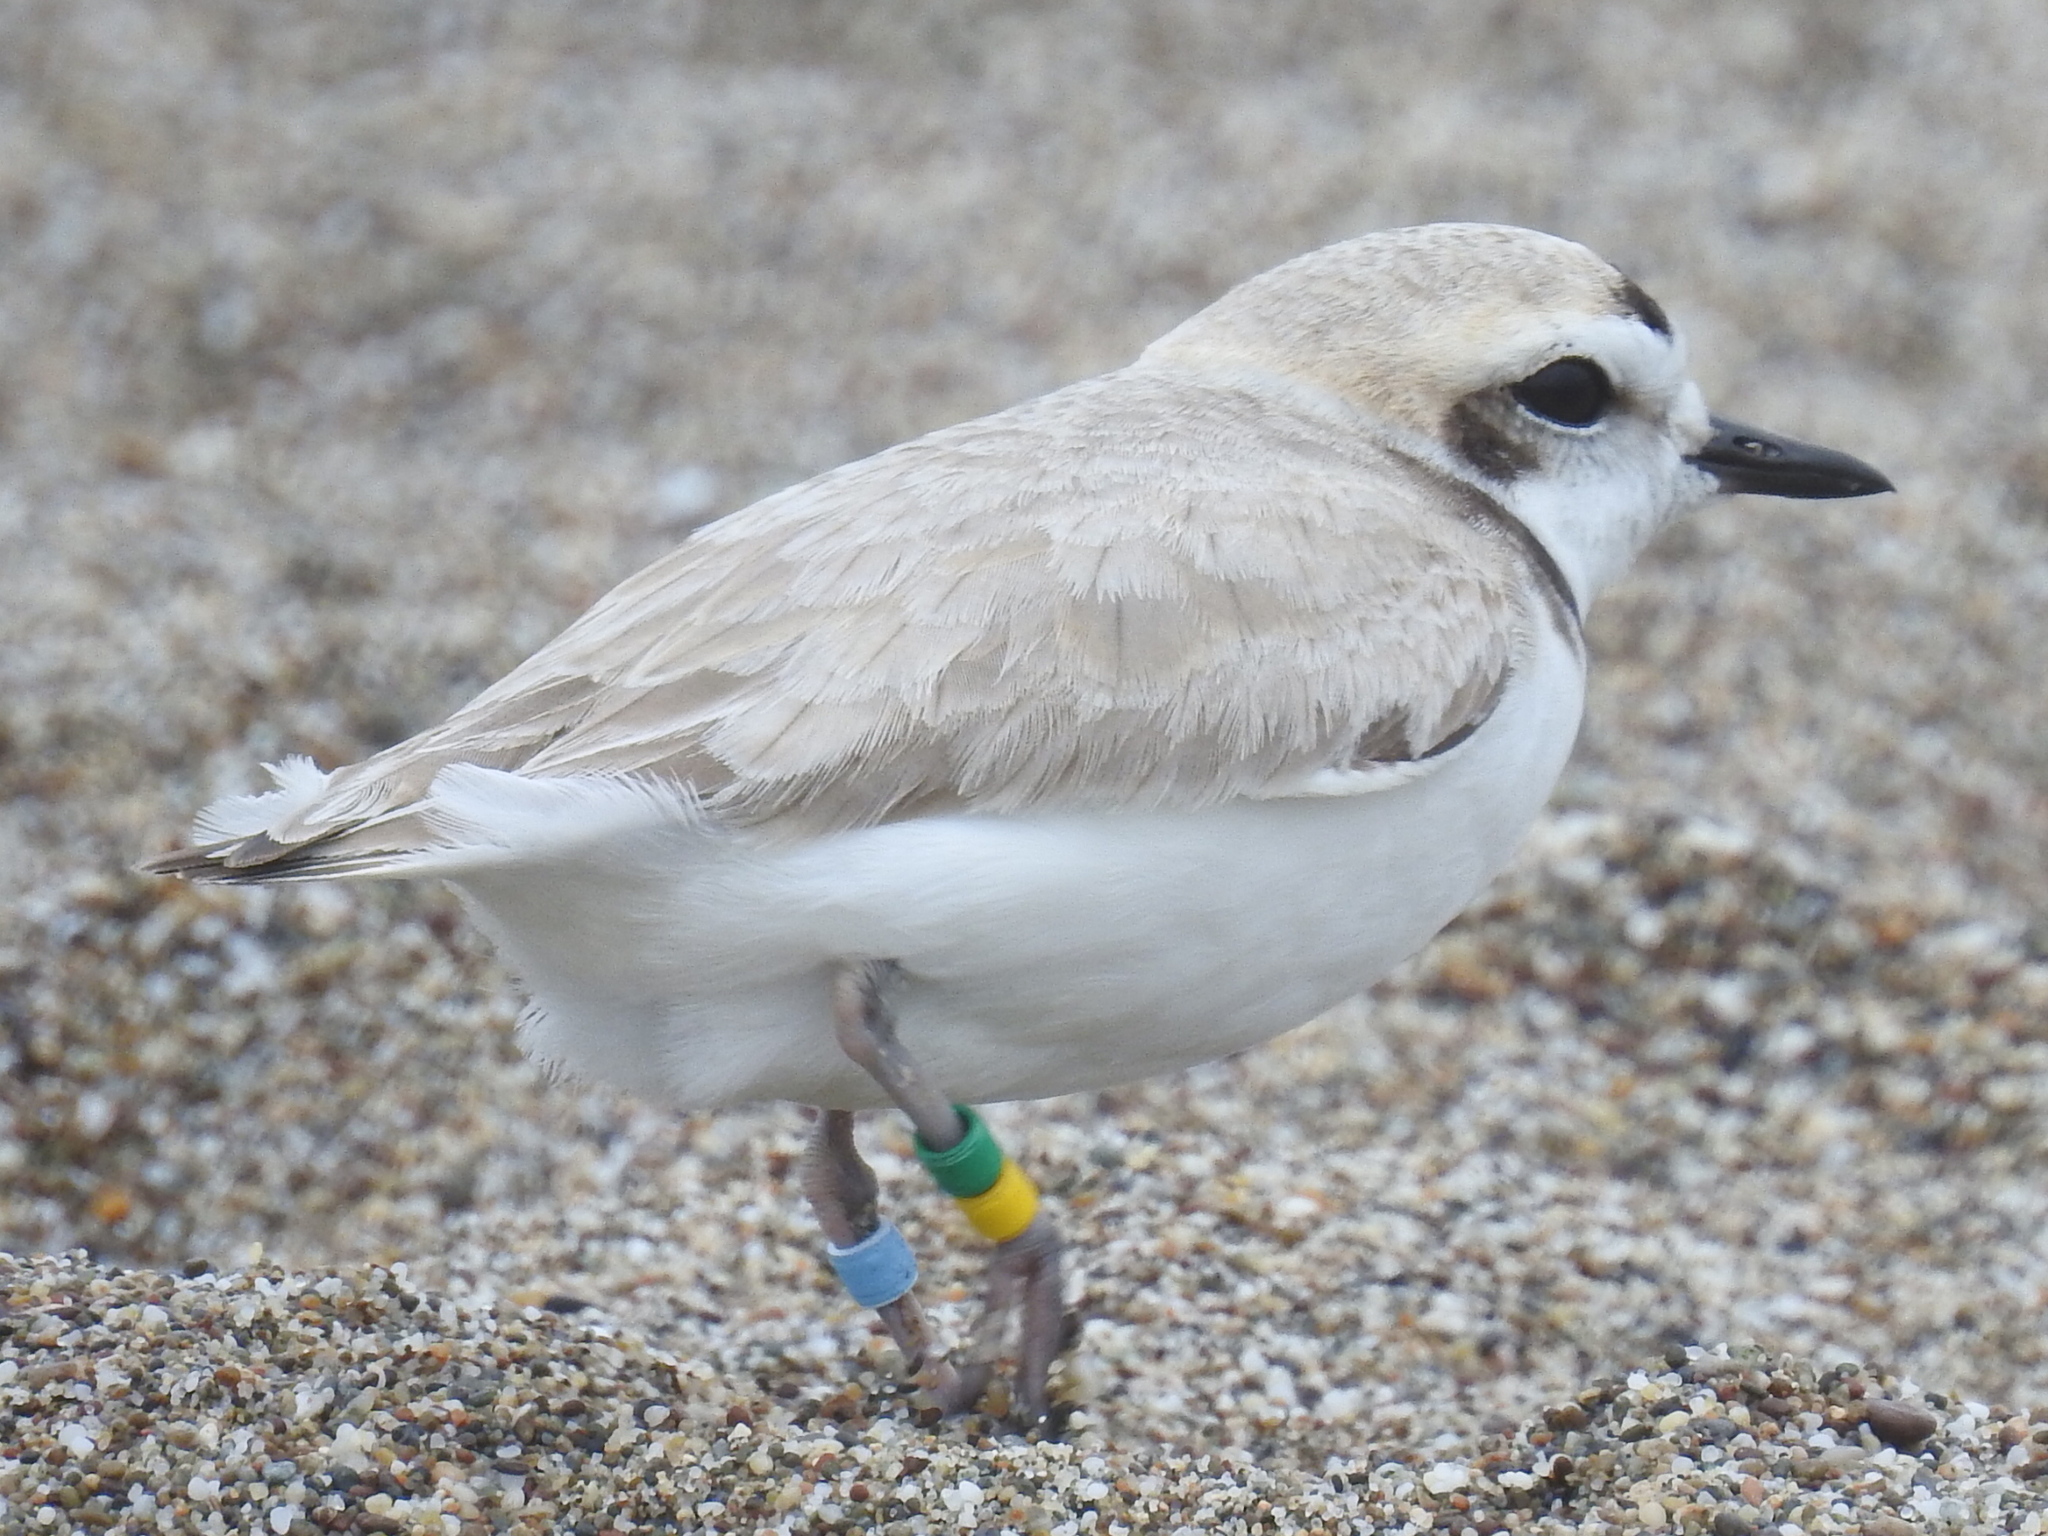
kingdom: Animalia
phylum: Chordata
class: Aves
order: Charadriiformes
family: Charadriidae
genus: Anarhynchus
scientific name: Anarhynchus
